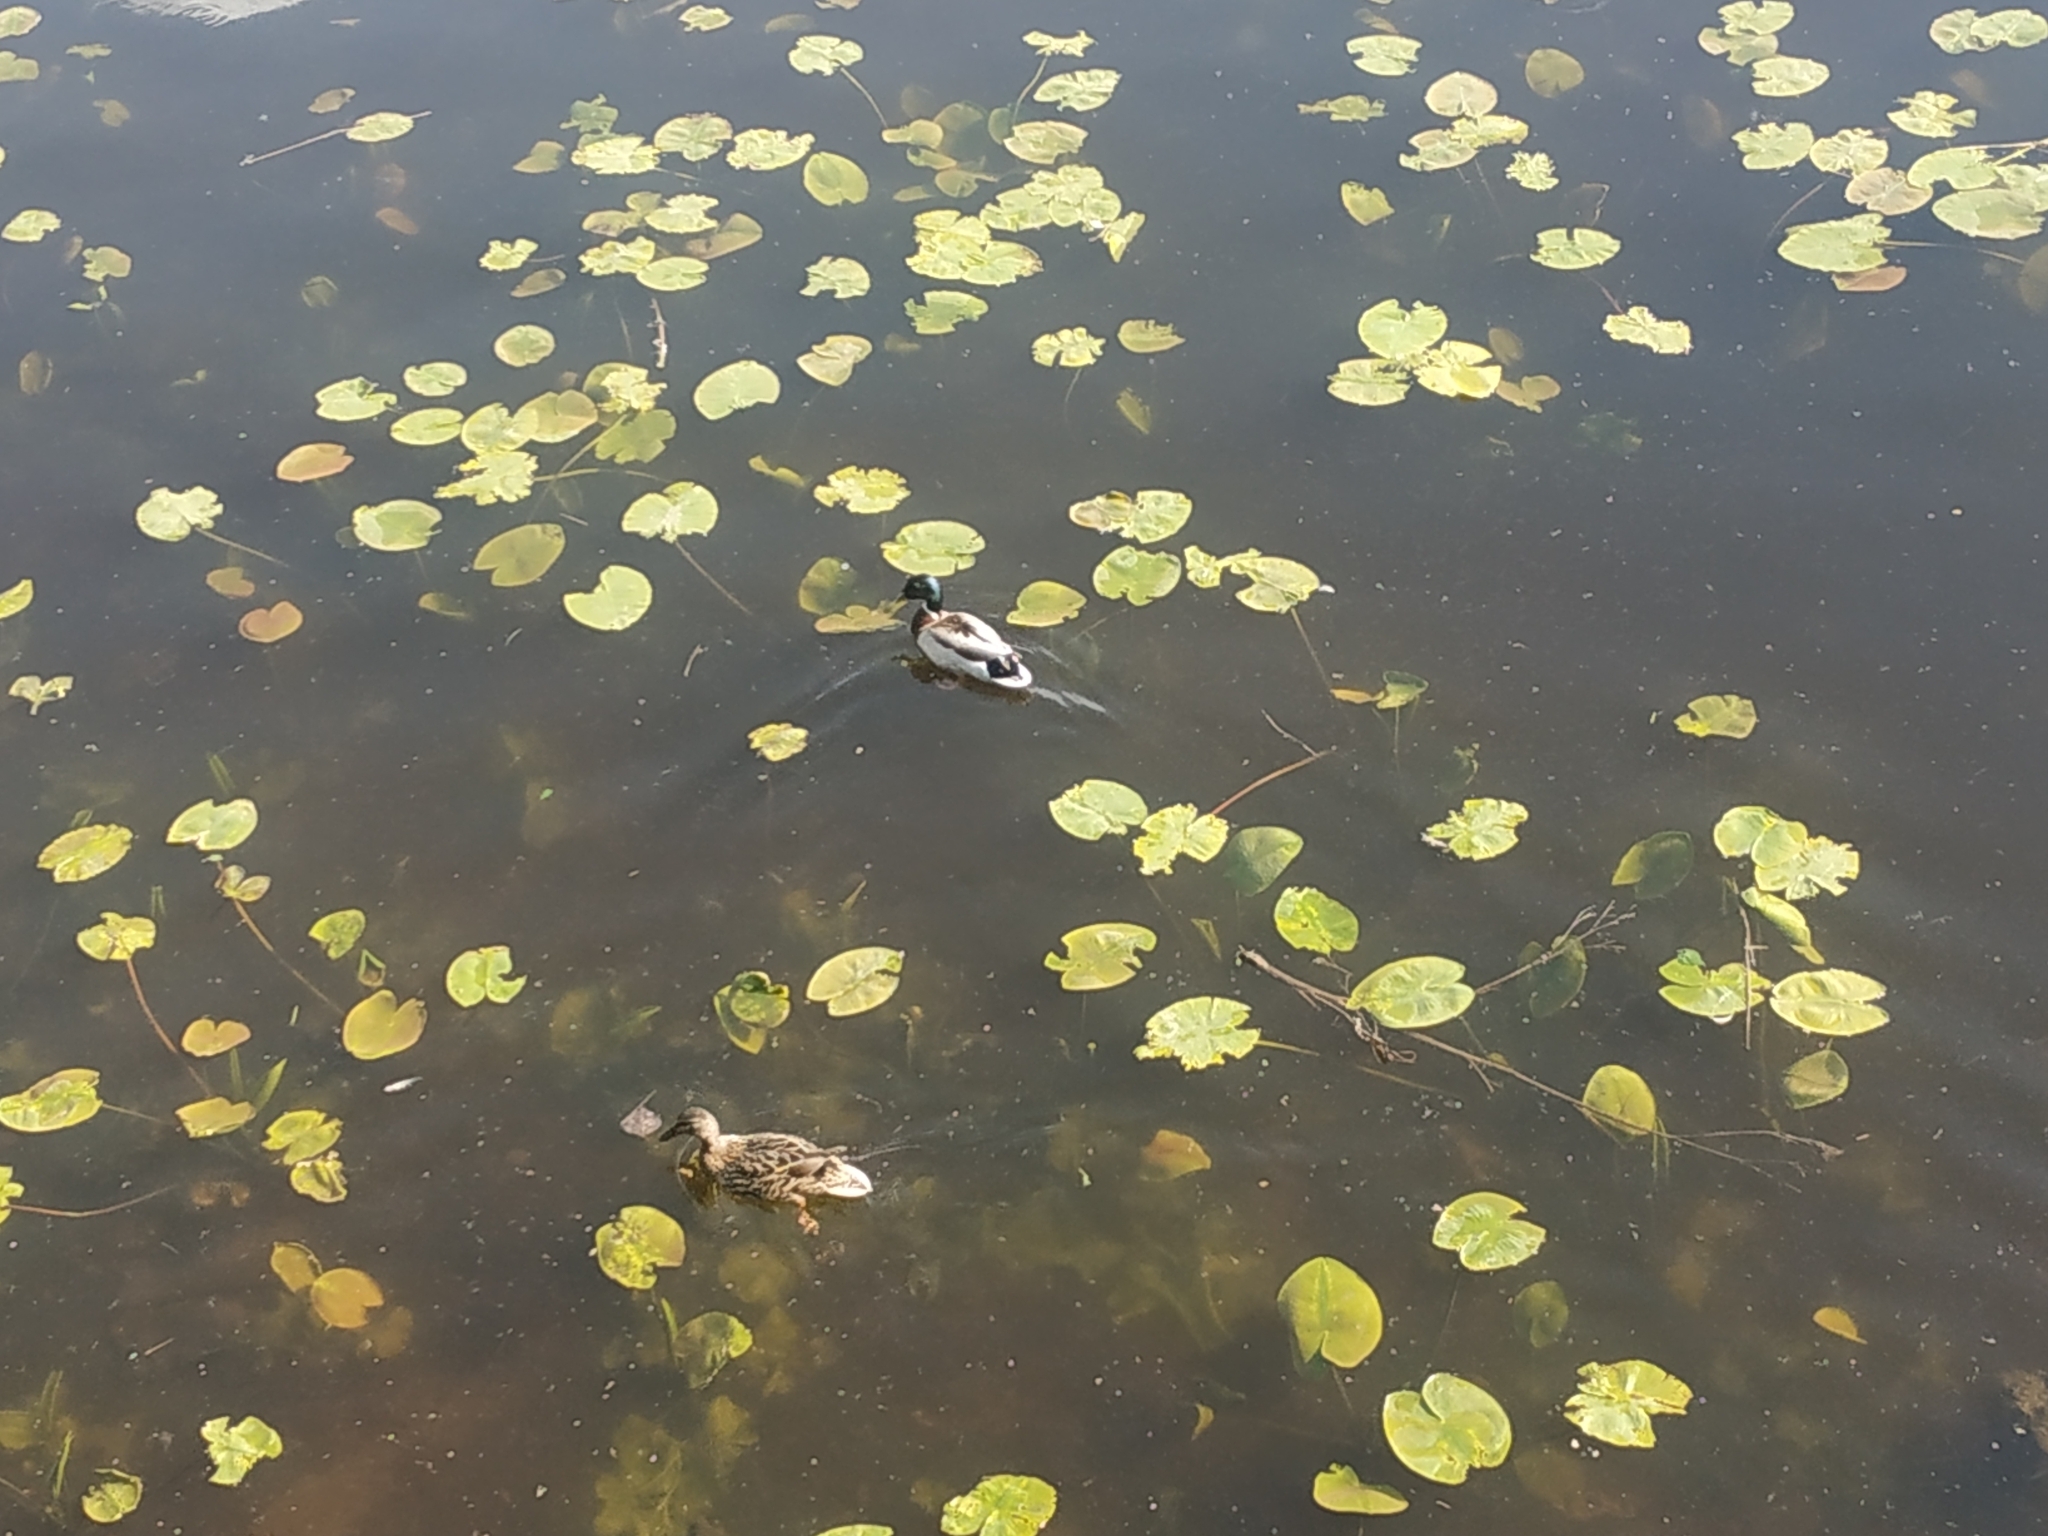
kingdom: Animalia
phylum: Chordata
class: Aves
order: Anseriformes
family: Anatidae
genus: Anas
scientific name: Anas platyrhynchos
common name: Mallard
